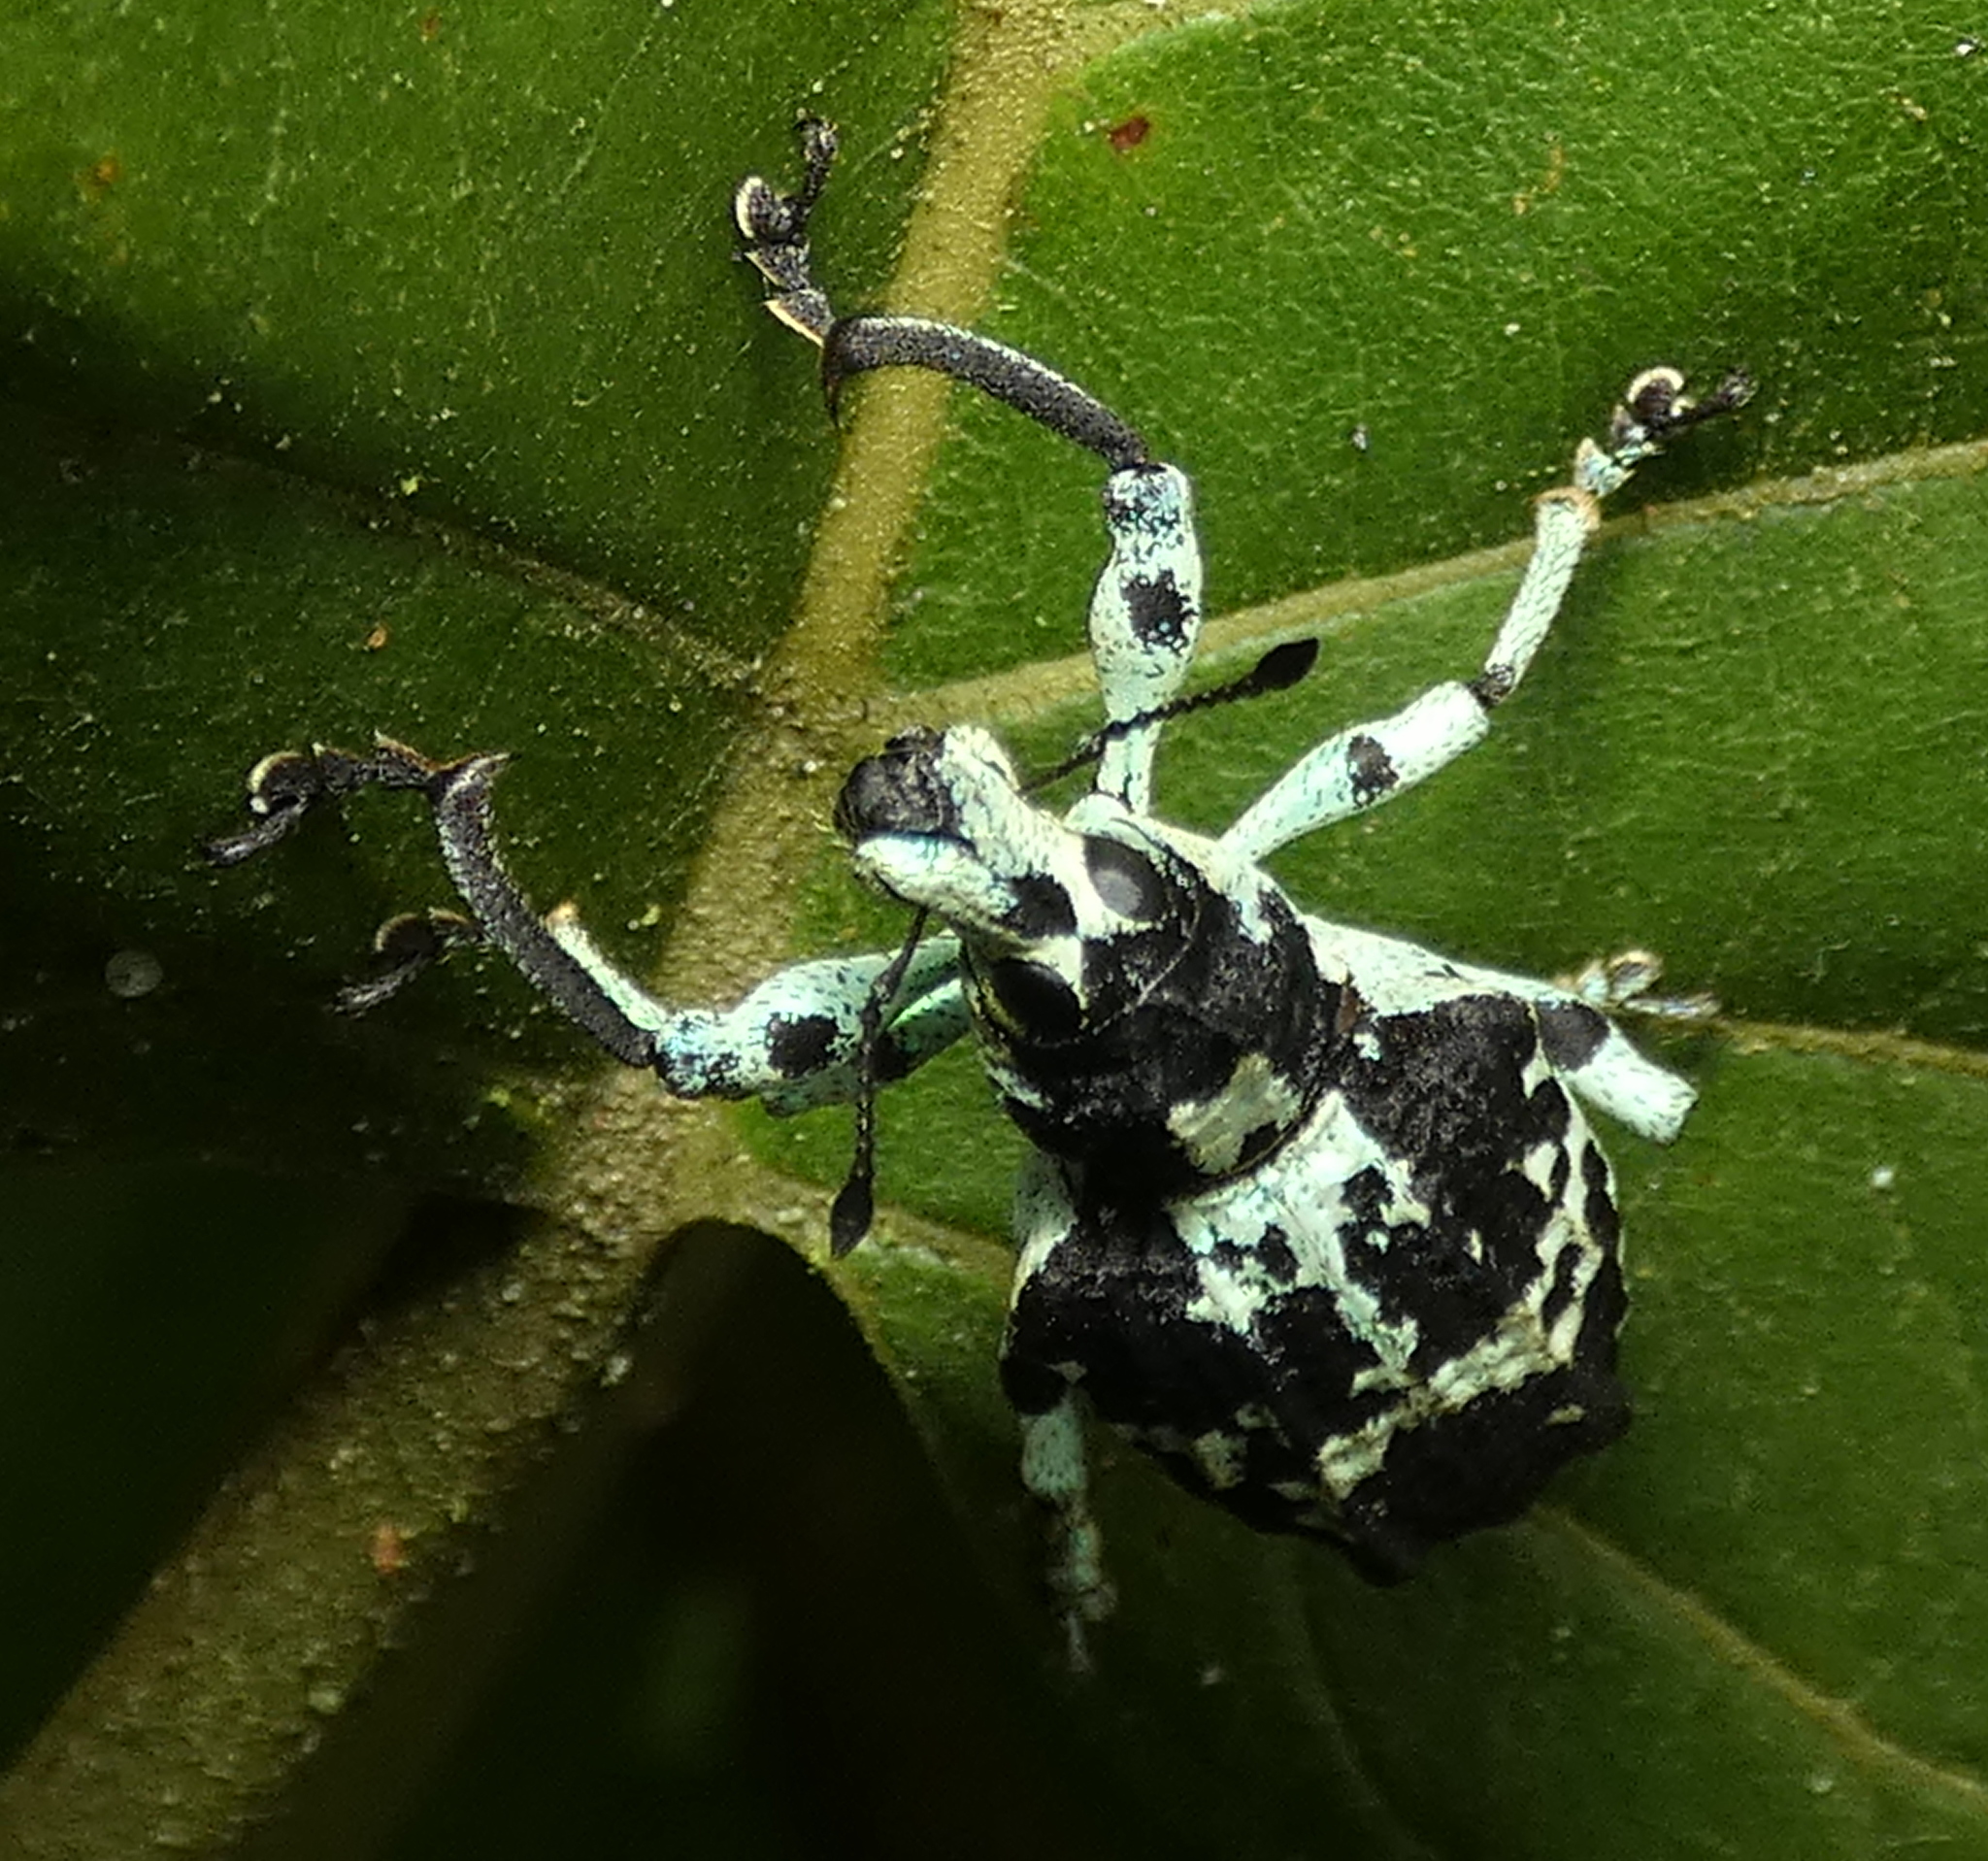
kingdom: Animalia
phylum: Arthropoda
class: Insecta
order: Coleoptera
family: Curculionidae
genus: Rhigus
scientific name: Rhigus dejeanii
